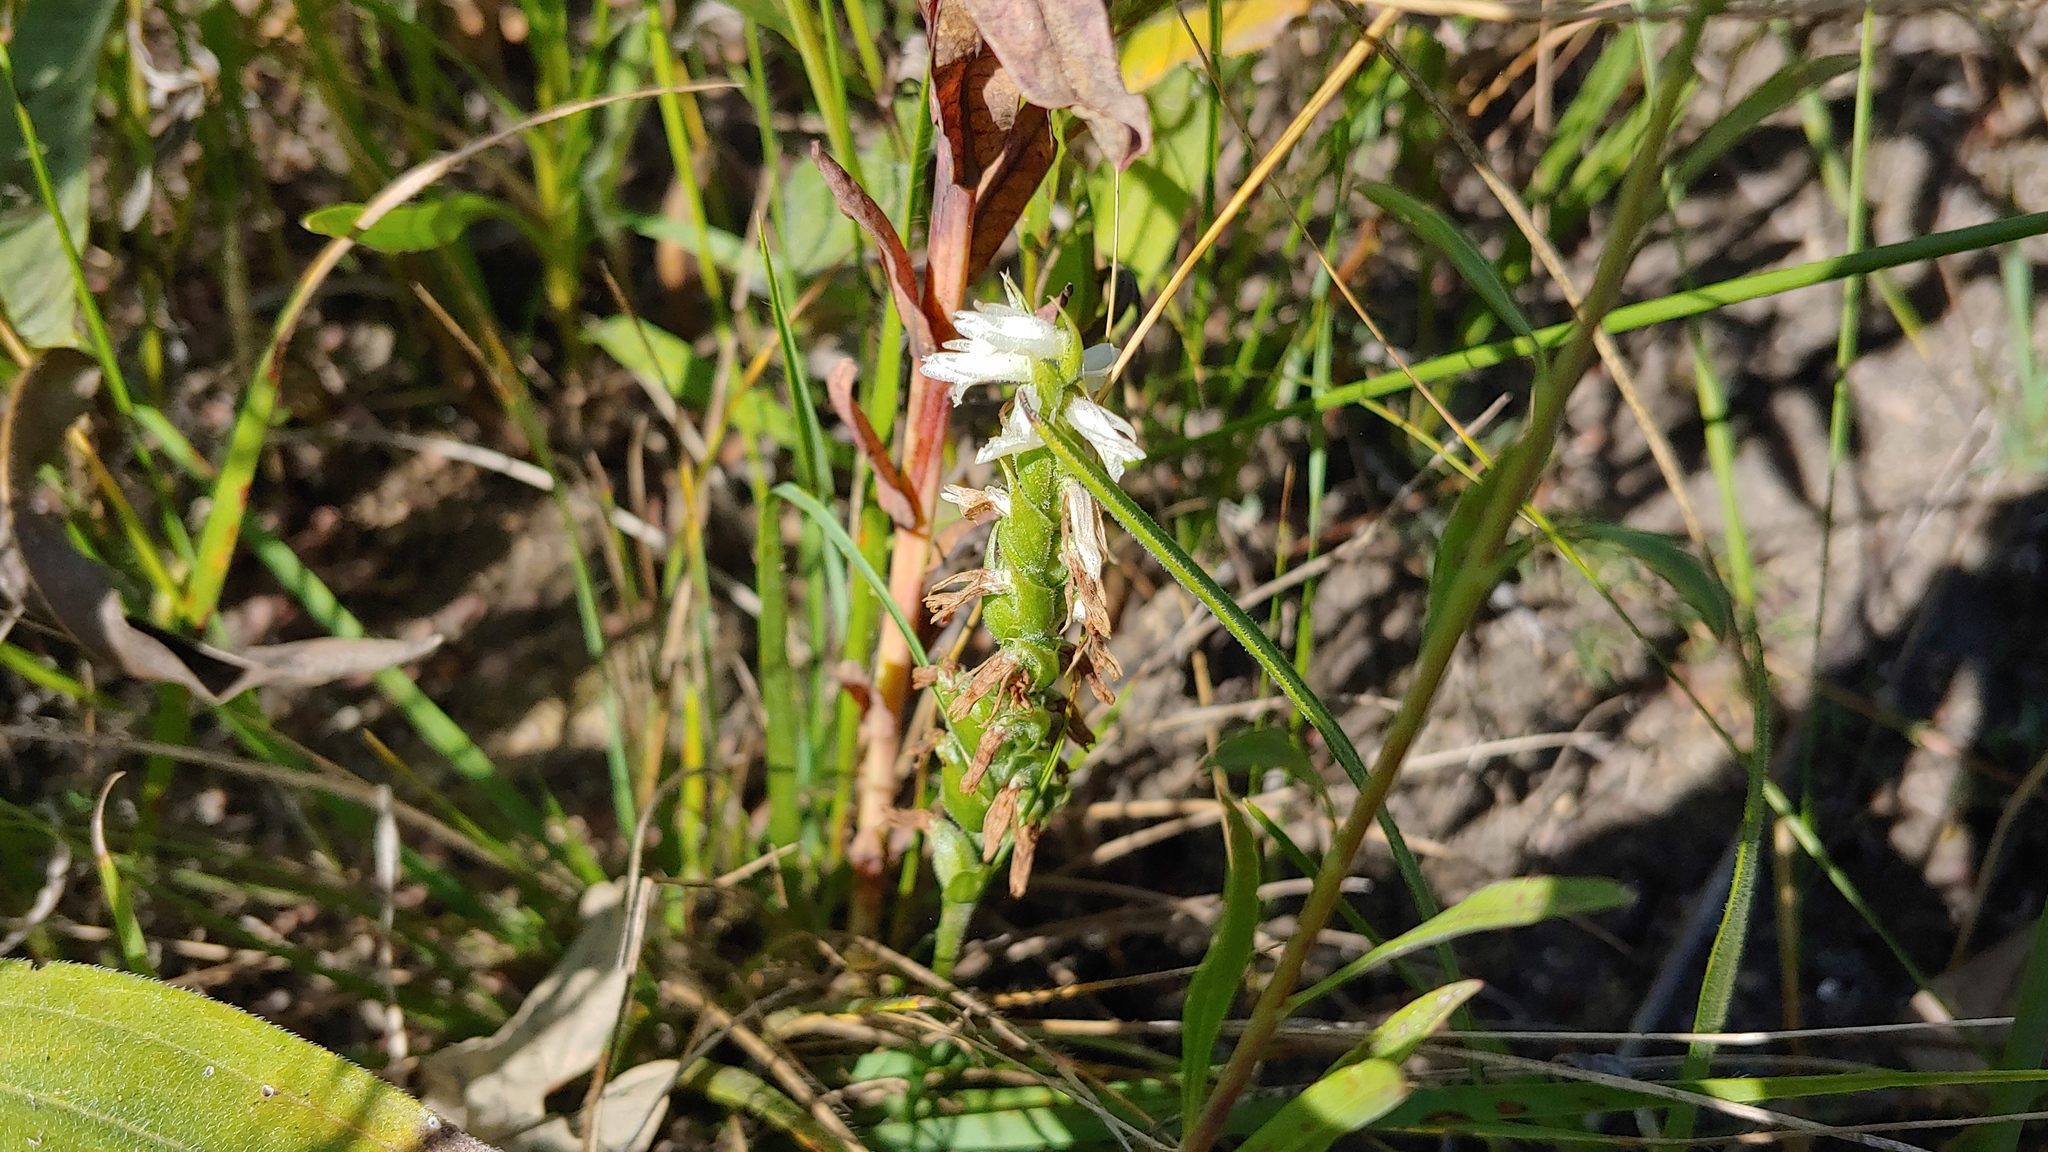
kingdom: Plantae
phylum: Tracheophyta
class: Liliopsida
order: Asparagales
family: Orchidaceae
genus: Spiranthes
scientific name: Spiranthes magnicamporum
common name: Great plains ladies'-tresses
